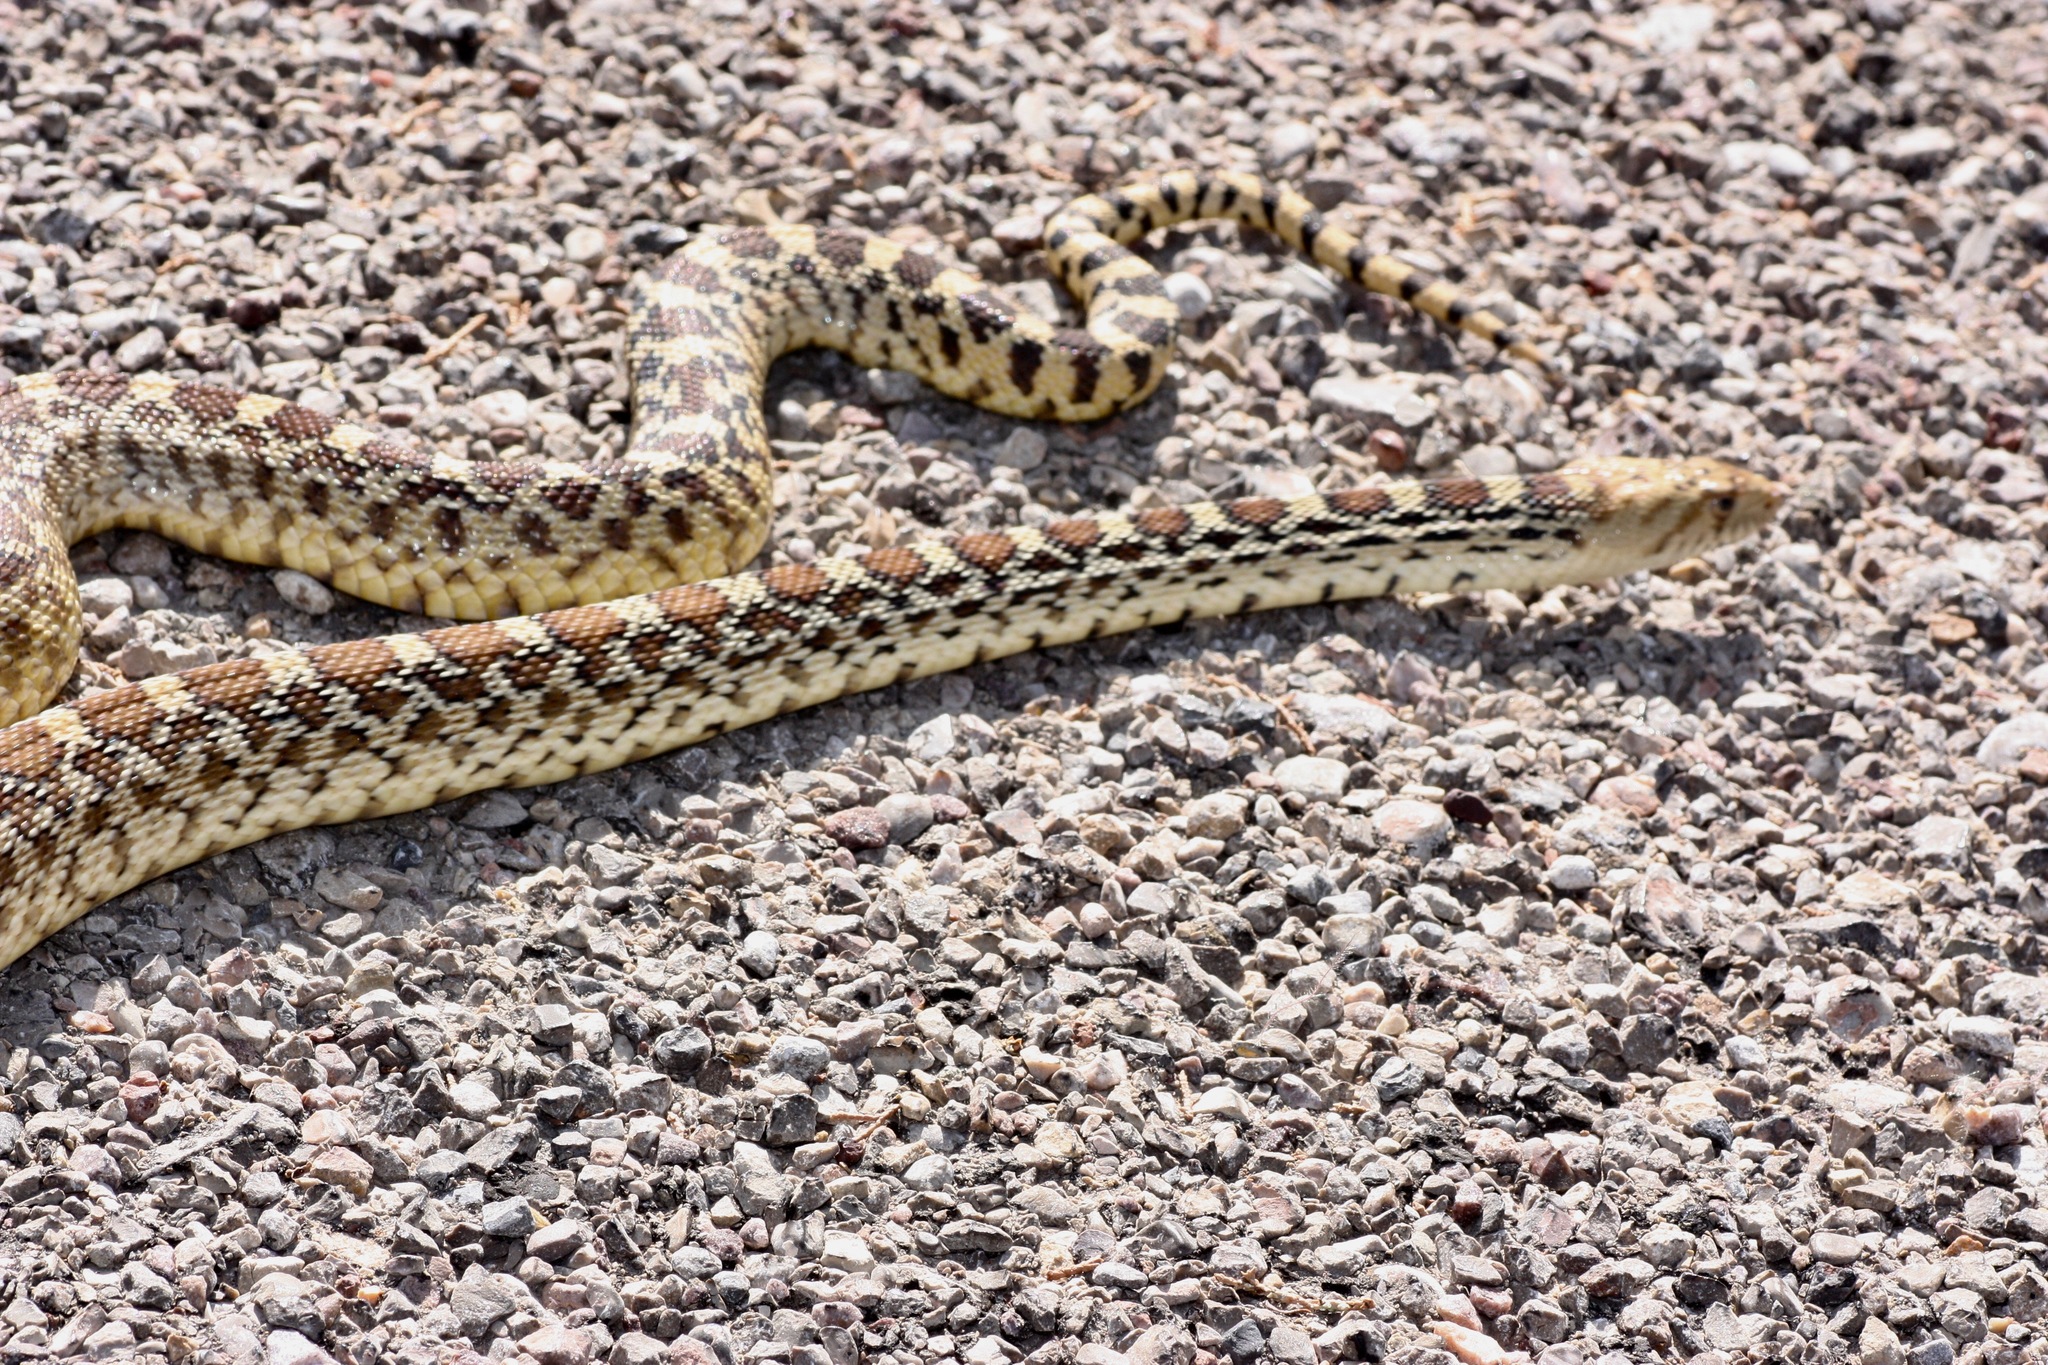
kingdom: Animalia
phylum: Chordata
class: Squamata
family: Colubridae
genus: Pituophis
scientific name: Pituophis catenifer
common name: Gopher snake
